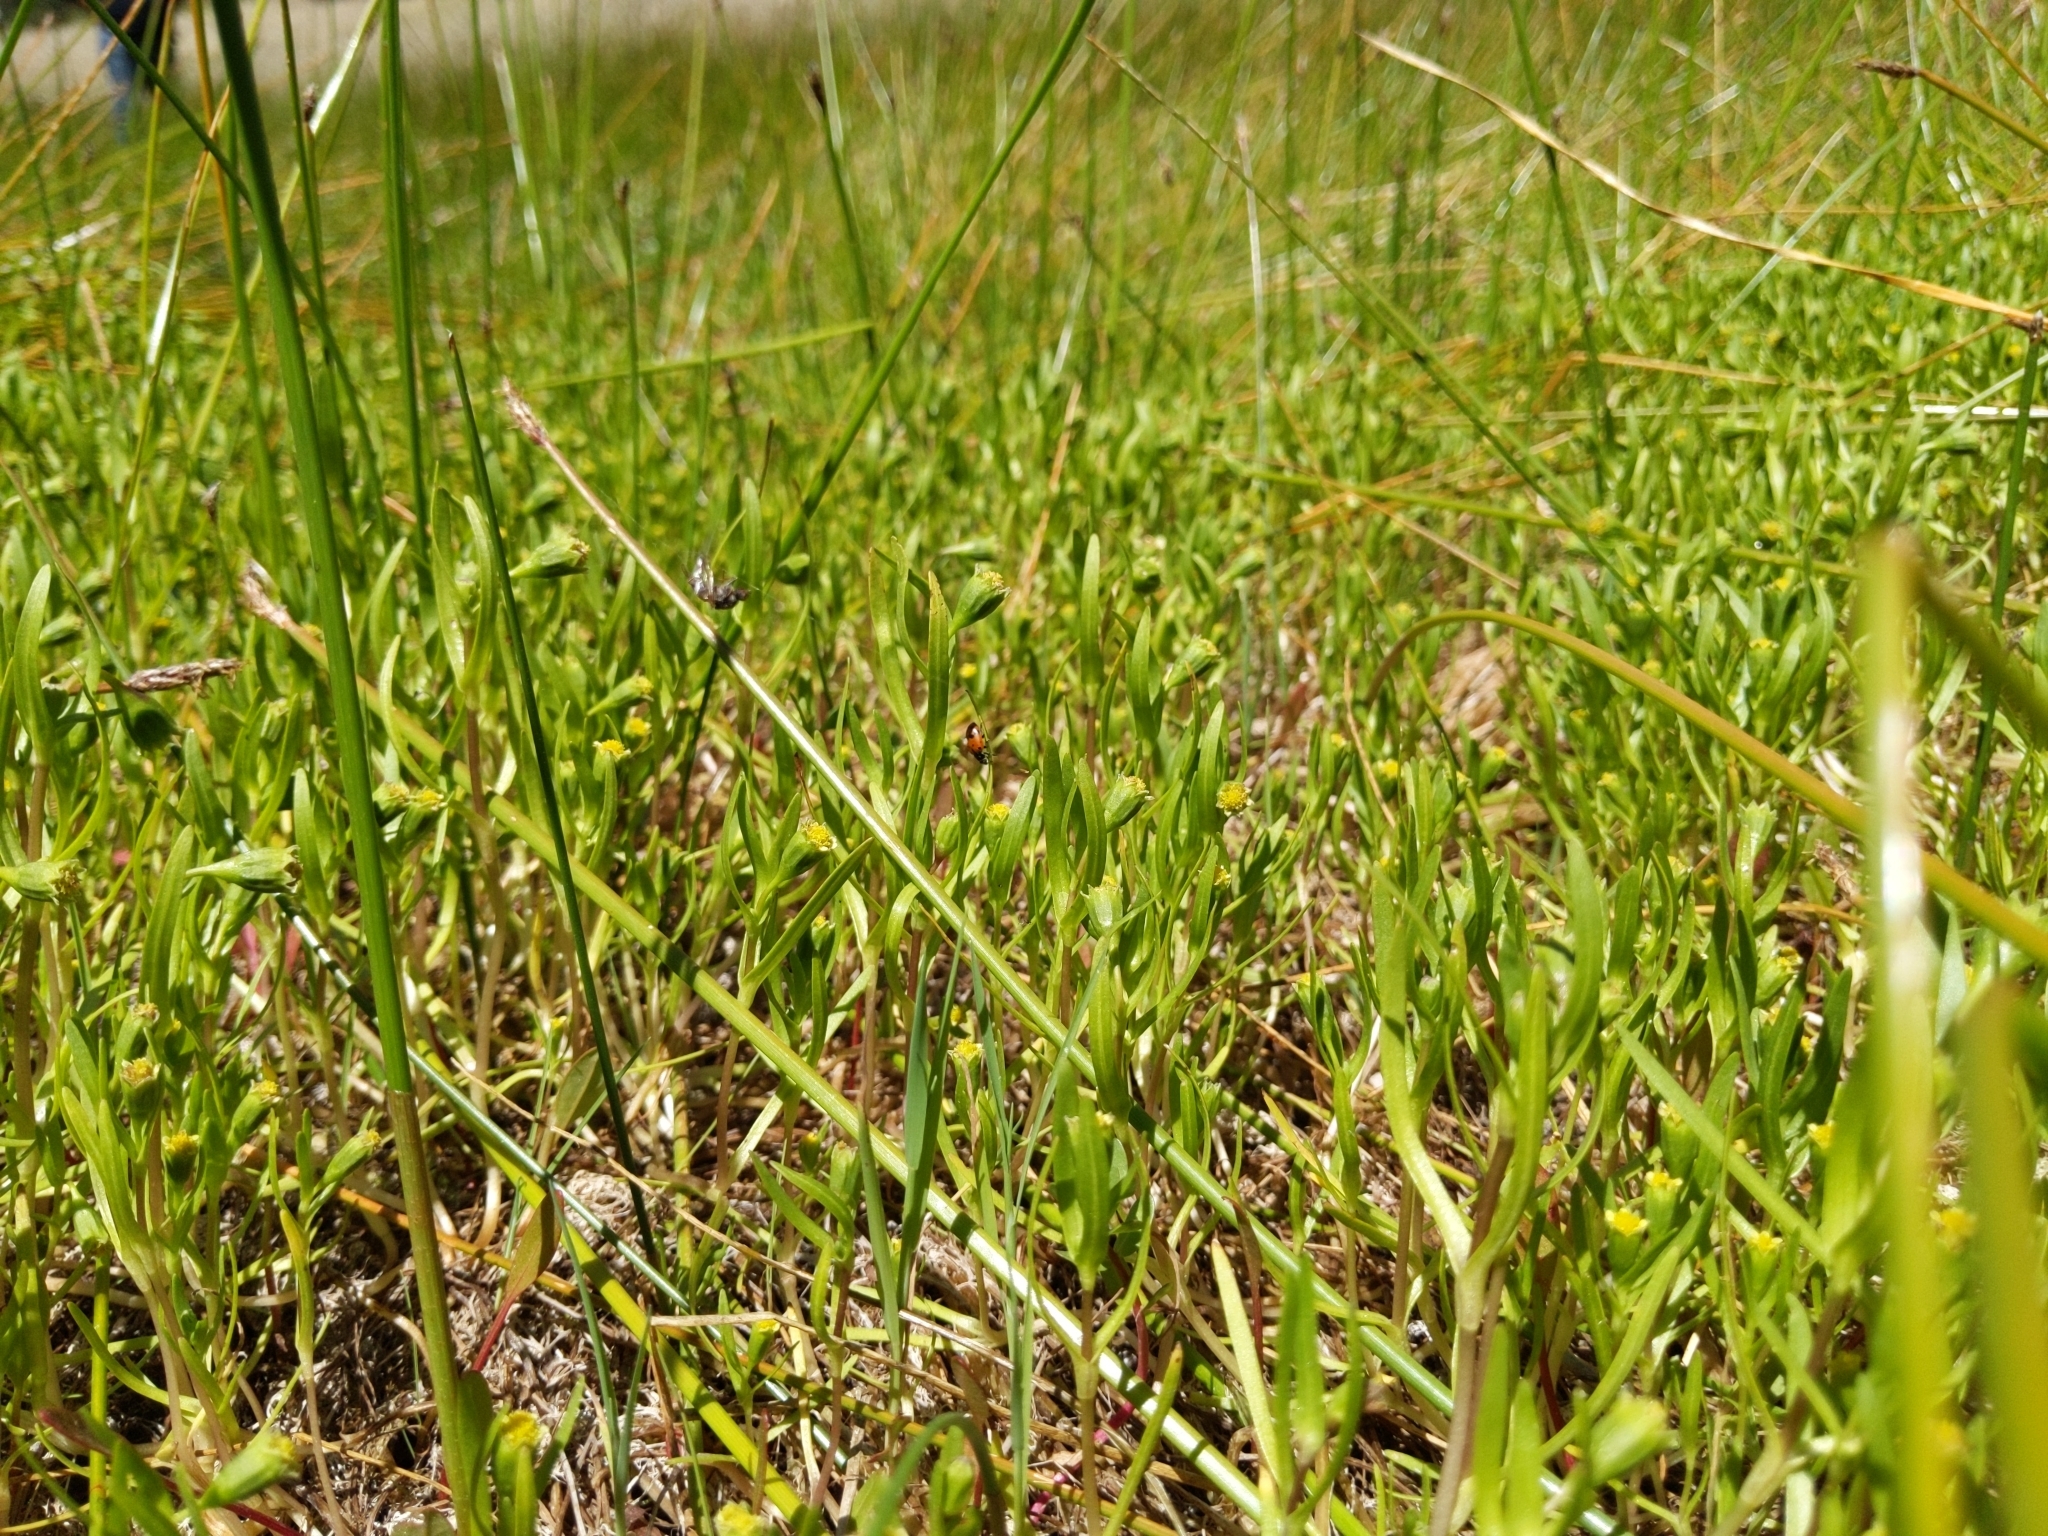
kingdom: Plantae
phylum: Tracheophyta
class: Magnoliopsida
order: Asterales
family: Asteraceae
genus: Lasthenia
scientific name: Lasthenia glaberrima
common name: Smooth goldfields
